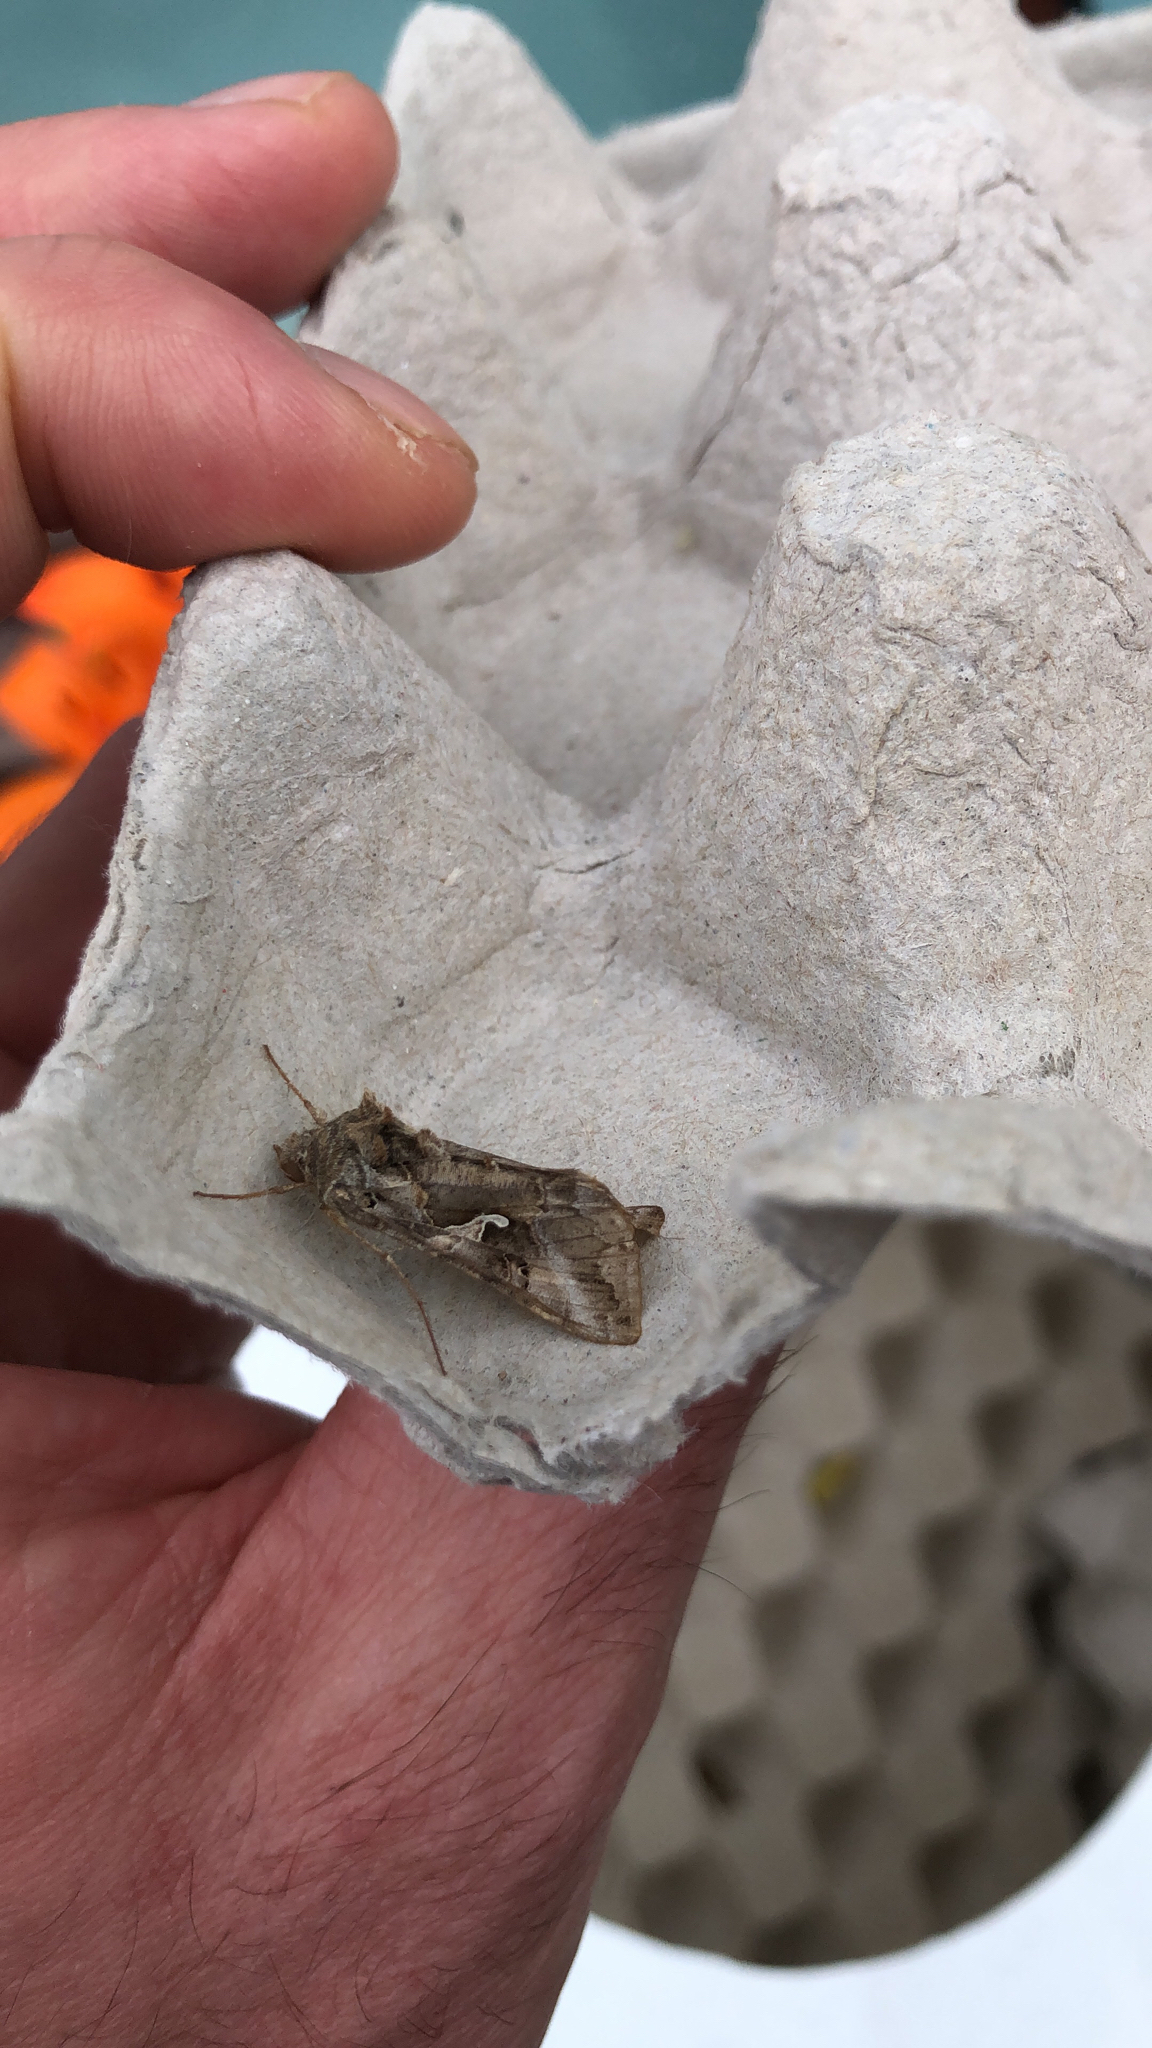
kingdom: Animalia
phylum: Arthropoda
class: Insecta
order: Lepidoptera
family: Noctuidae
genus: Autographa
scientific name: Autographa gamma
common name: Silver y
